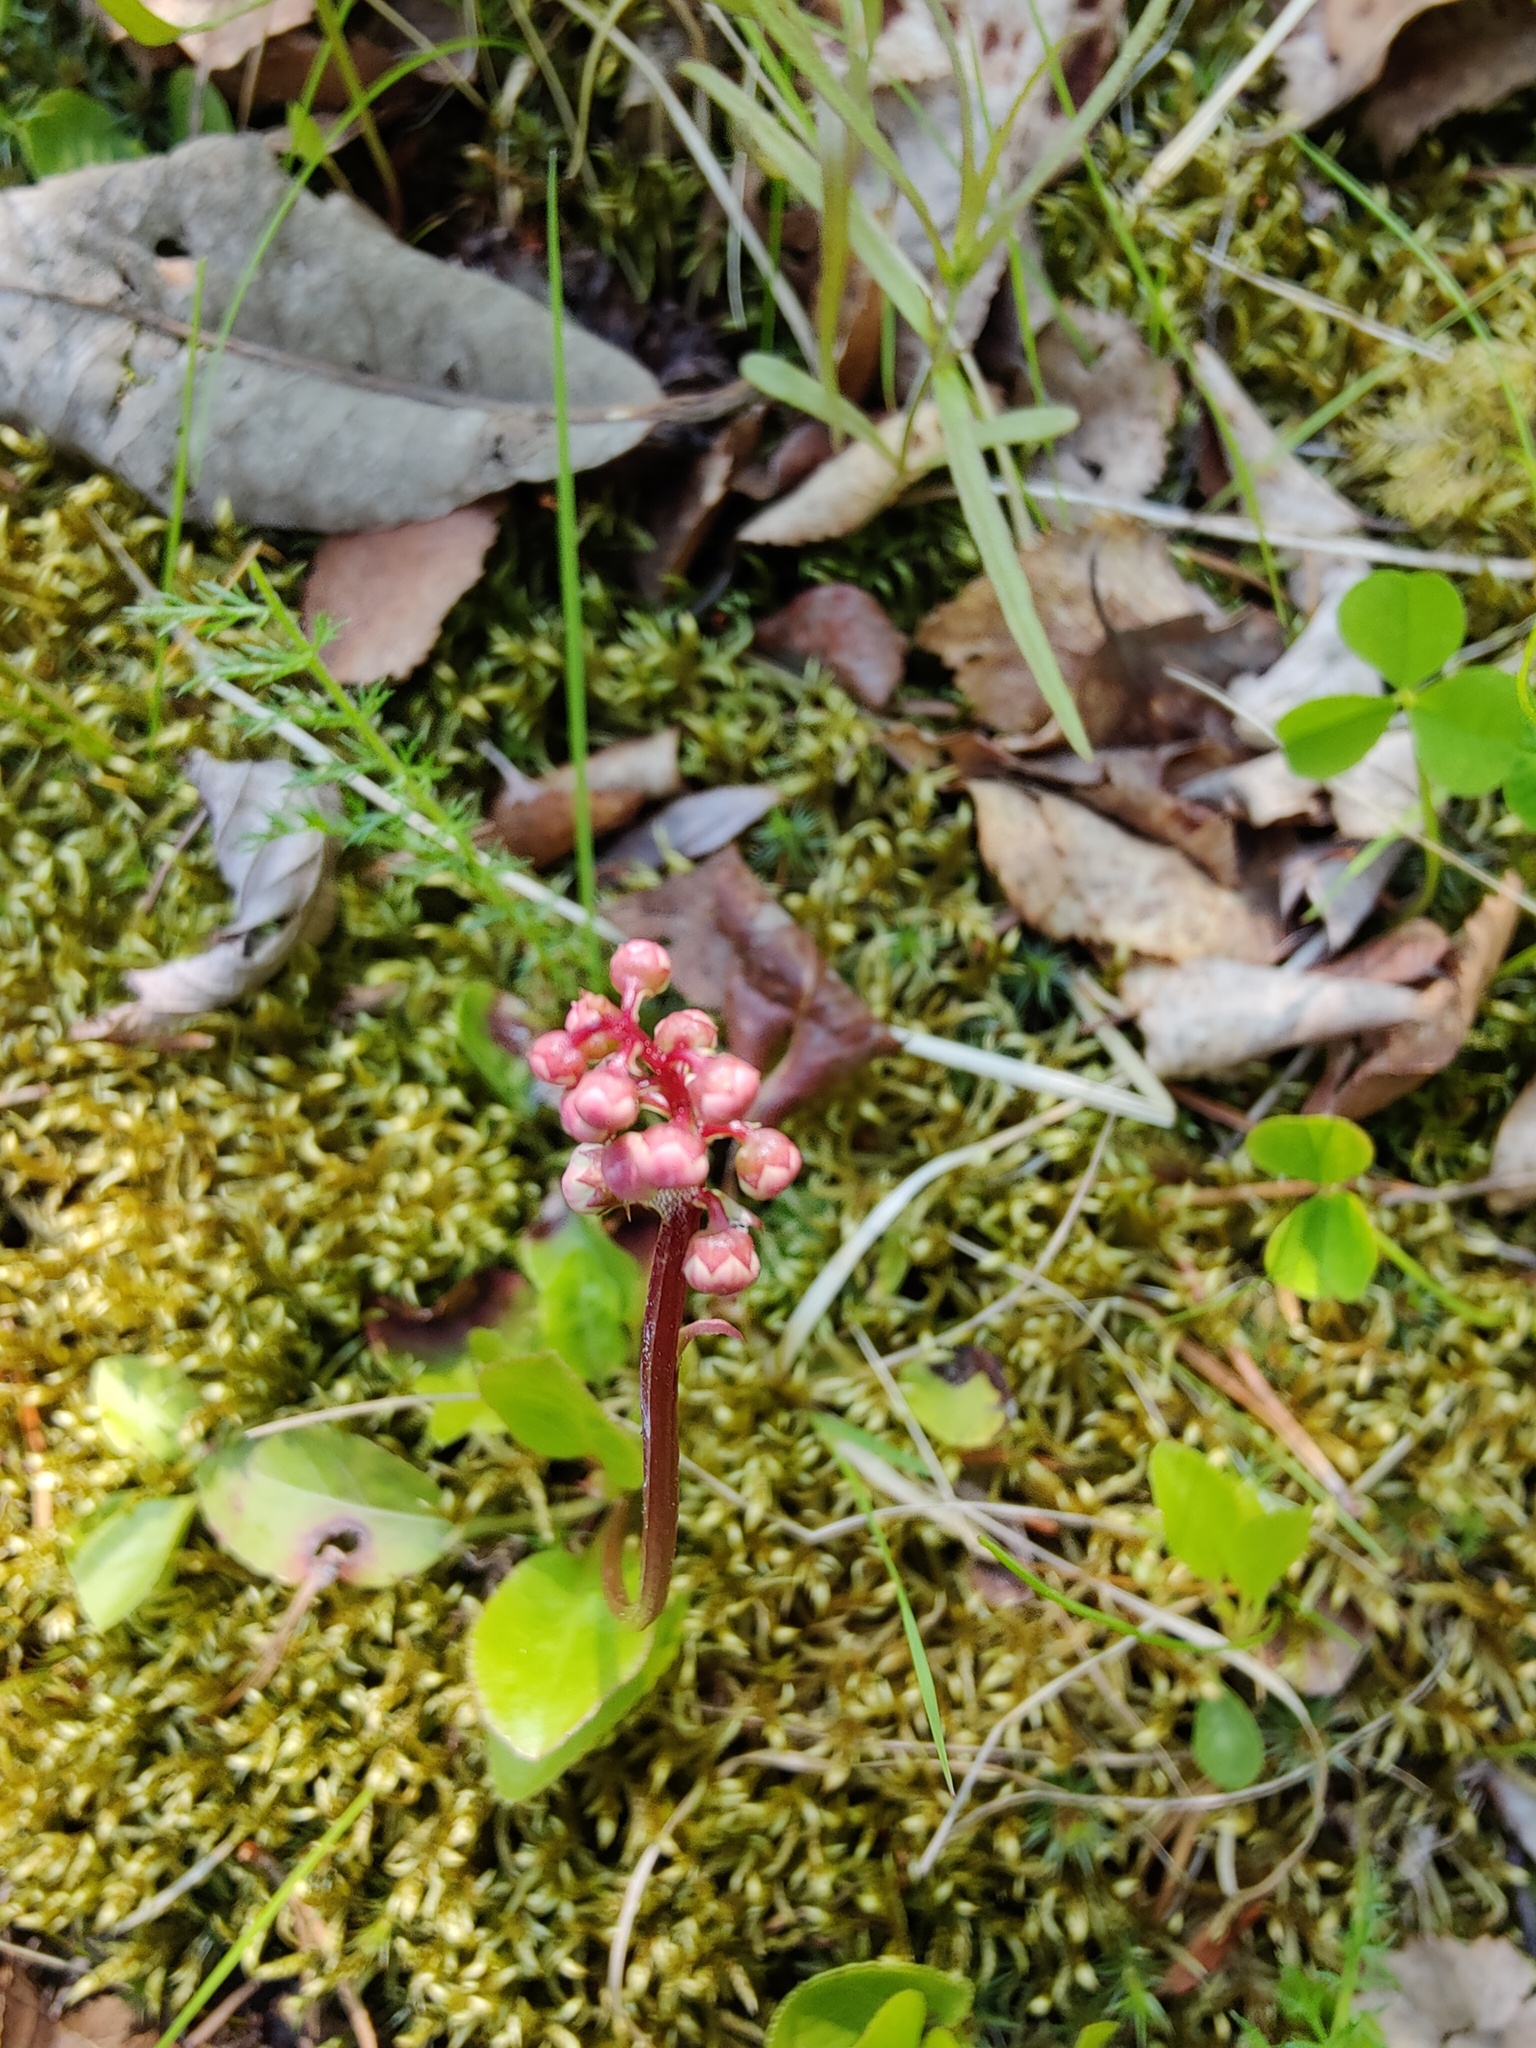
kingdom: Plantae
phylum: Tracheophyta
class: Magnoliopsida
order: Ericales
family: Ericaceae
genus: Pyrola
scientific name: Pyrola minor
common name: Common wintergreen
